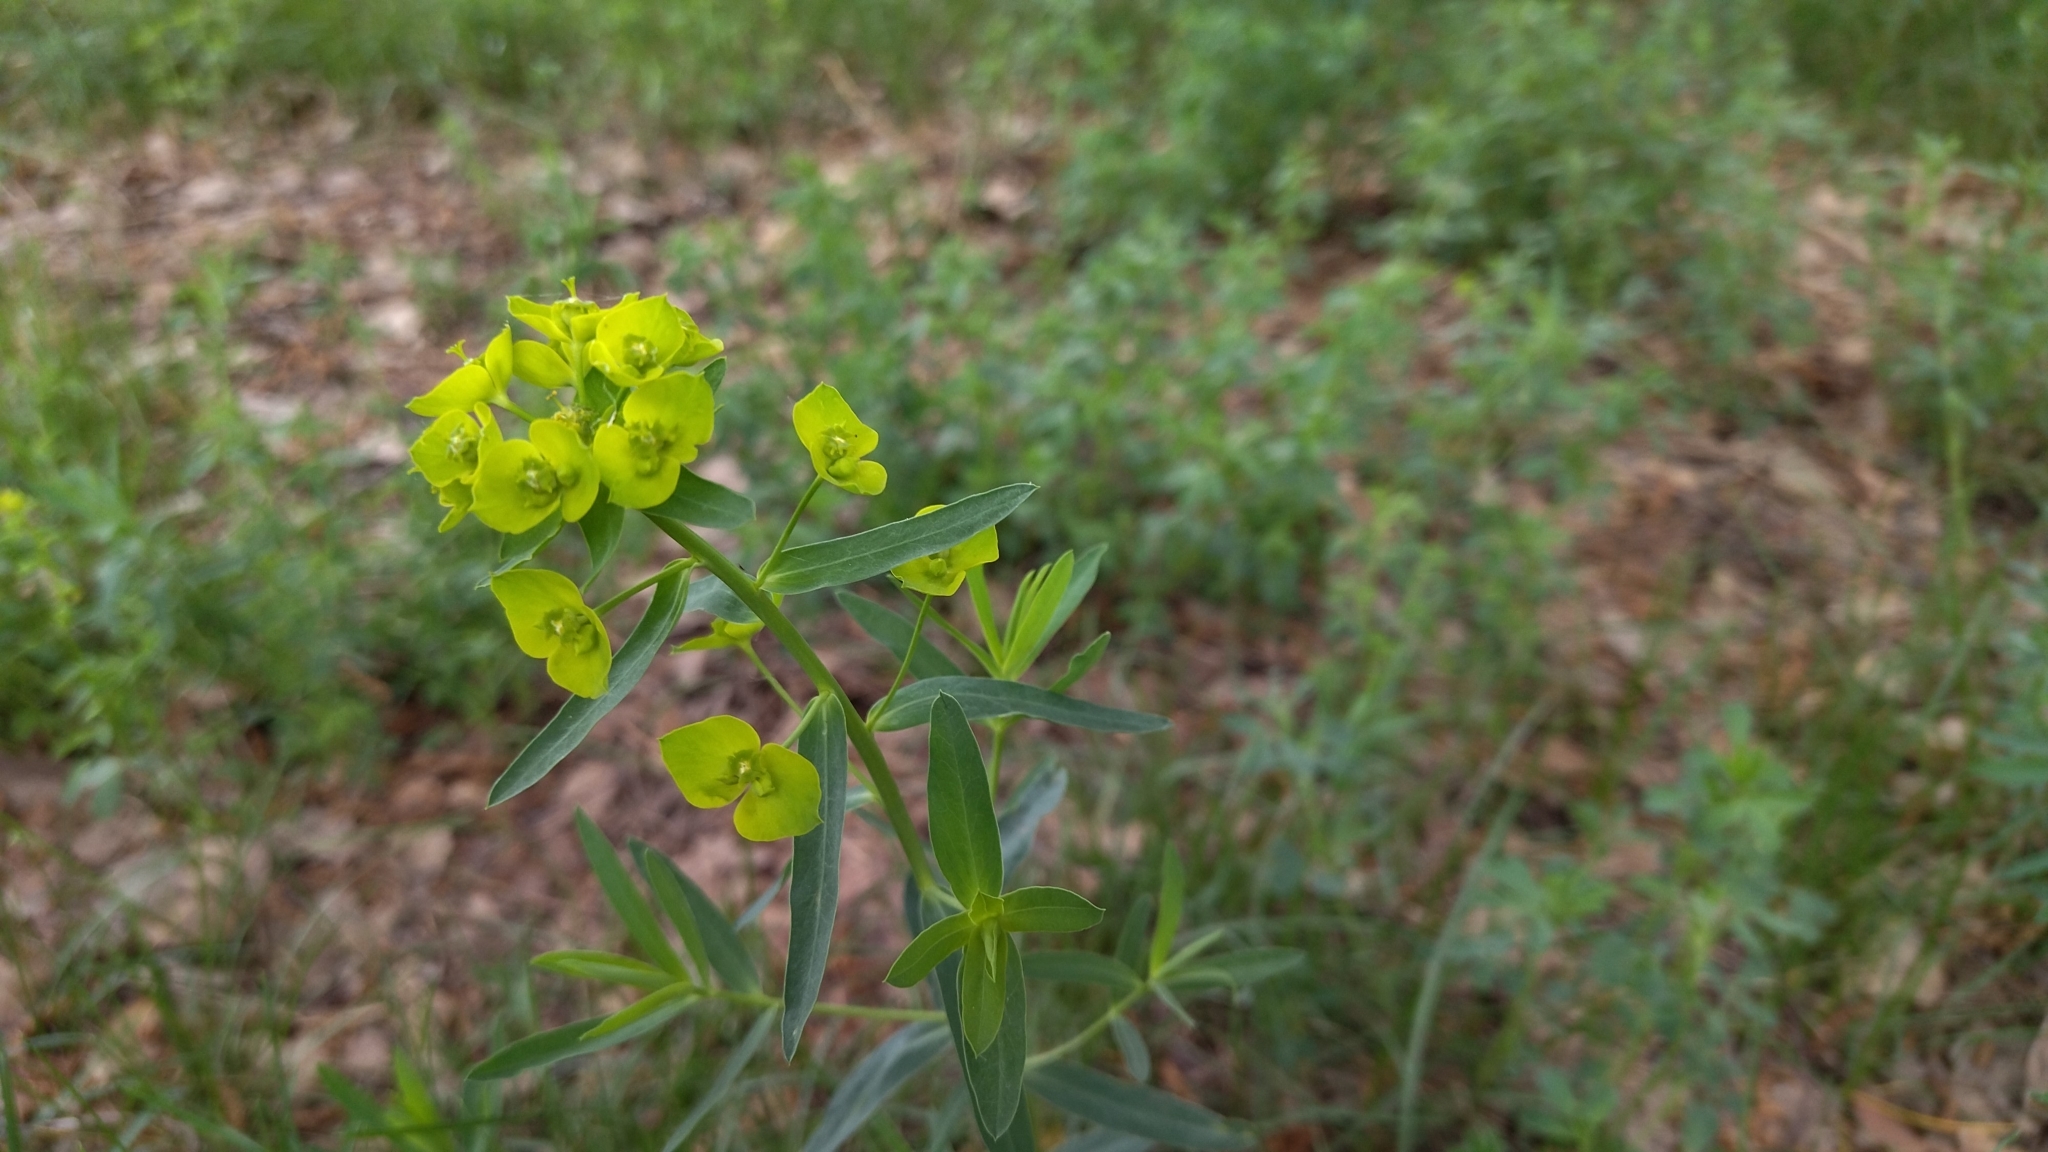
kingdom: Plantae
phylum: Tracheophyta
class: Magnoliopsida
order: Malpighiales
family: Euphorbiaceae
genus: Euphorbia
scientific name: Euphorbia virgata
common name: Leafy spurge
